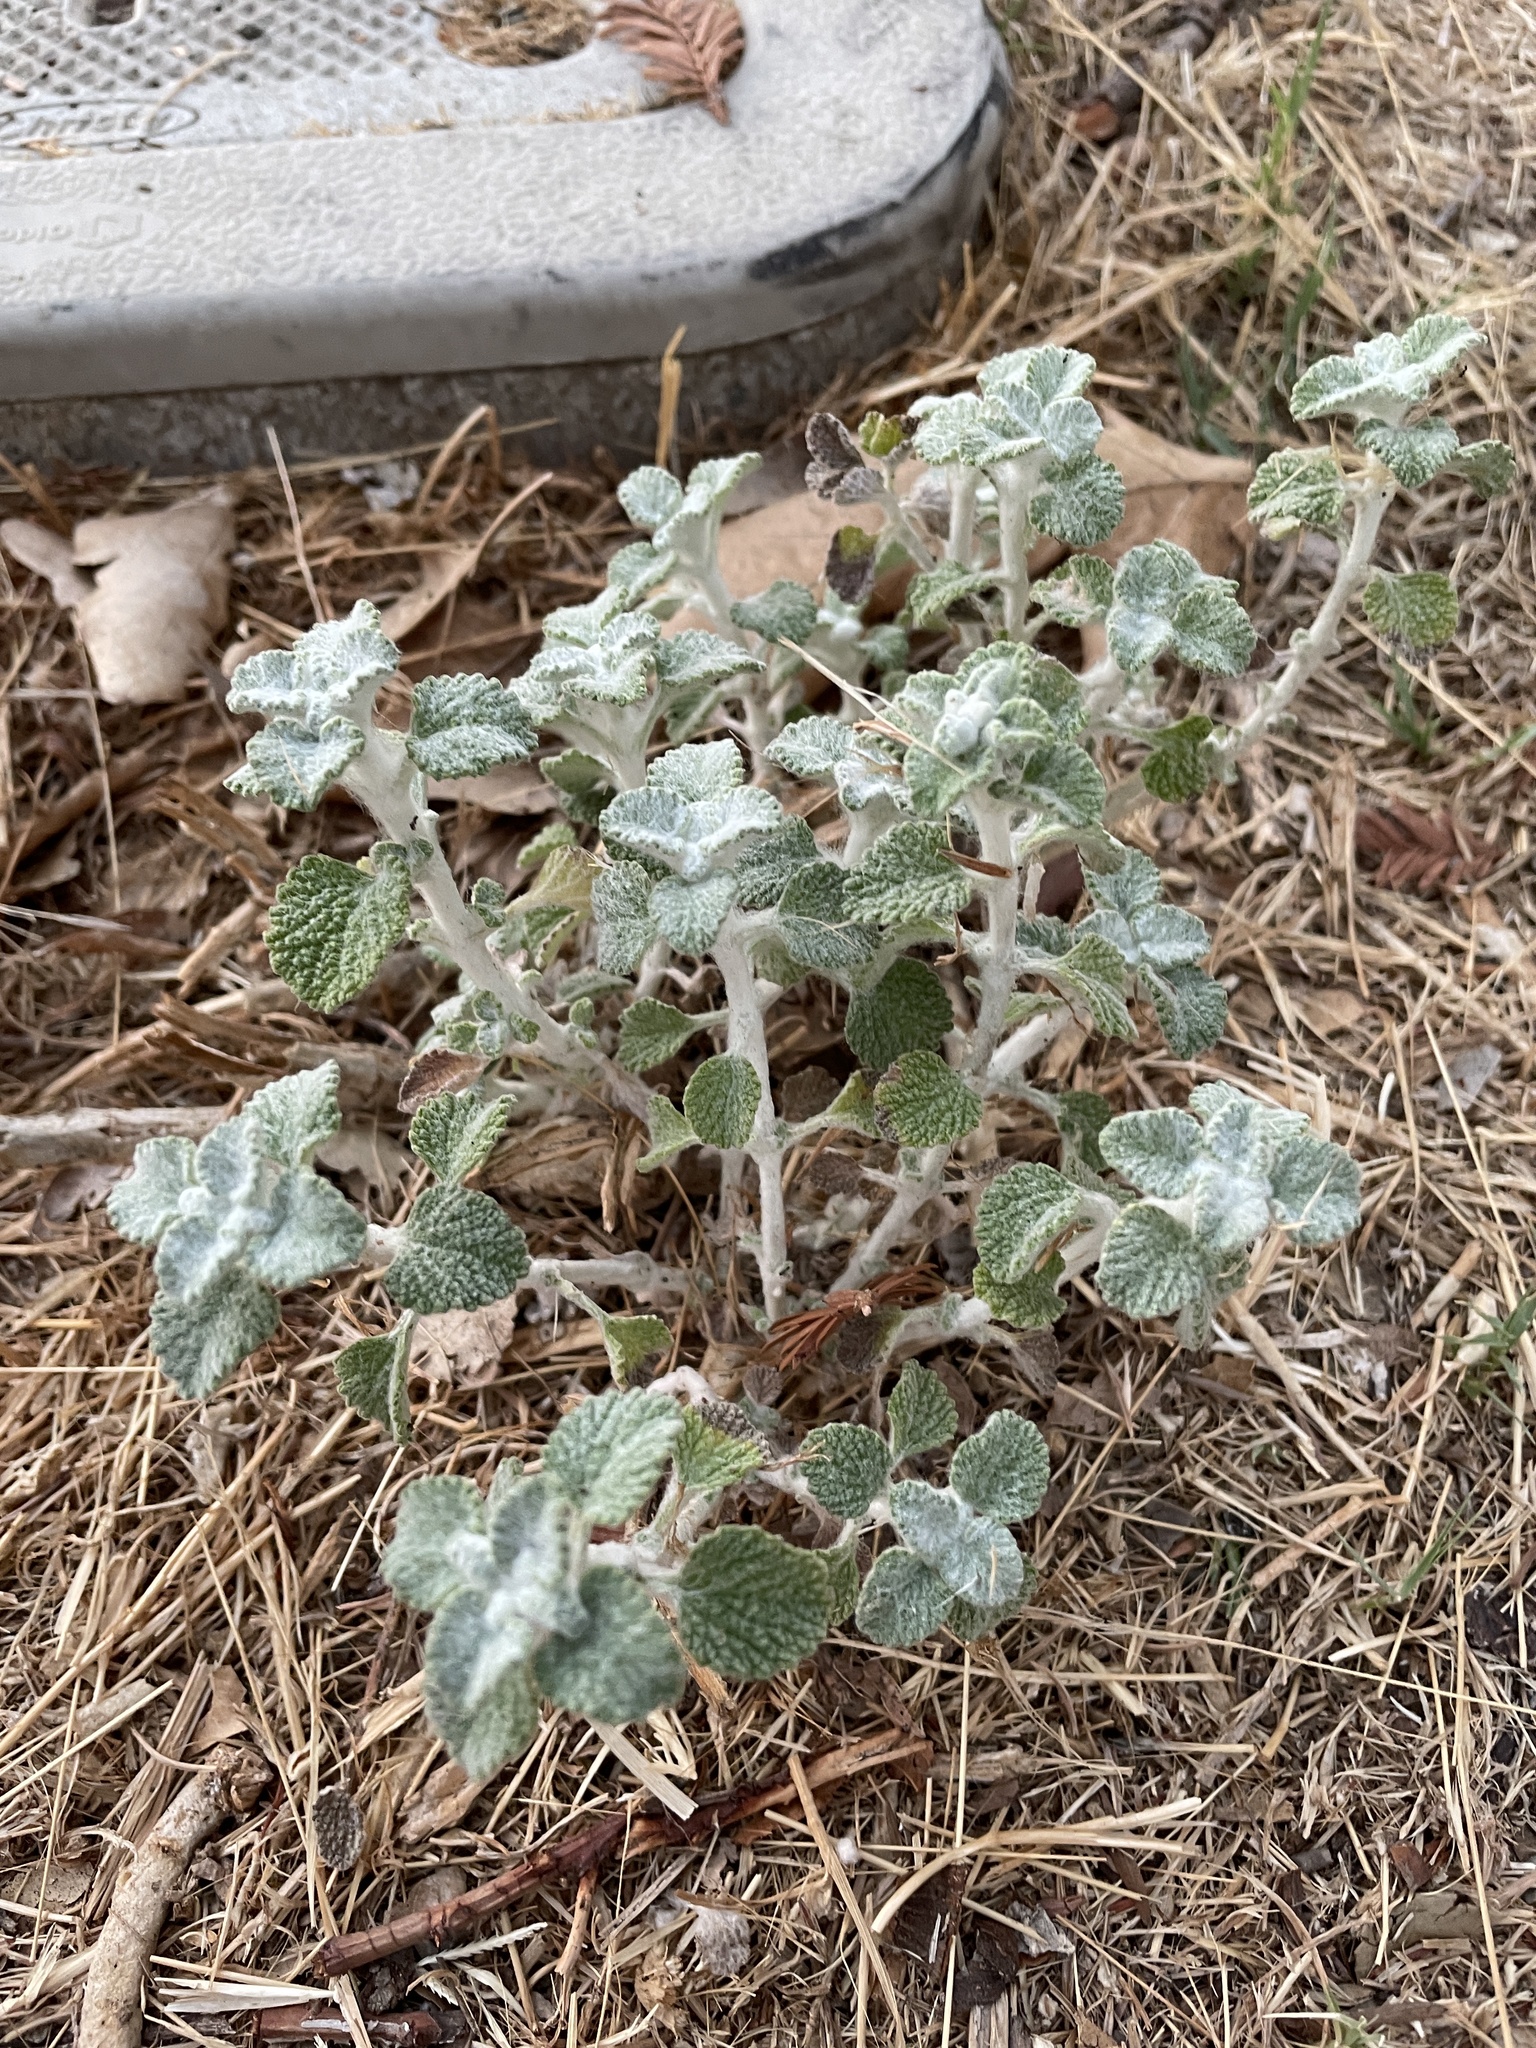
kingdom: Plantae
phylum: Tracheophyta
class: Magnoliopsida
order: Lamiales
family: Lamiaceae
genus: Marrubium
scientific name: Marrubium vulgare
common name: Horehound
